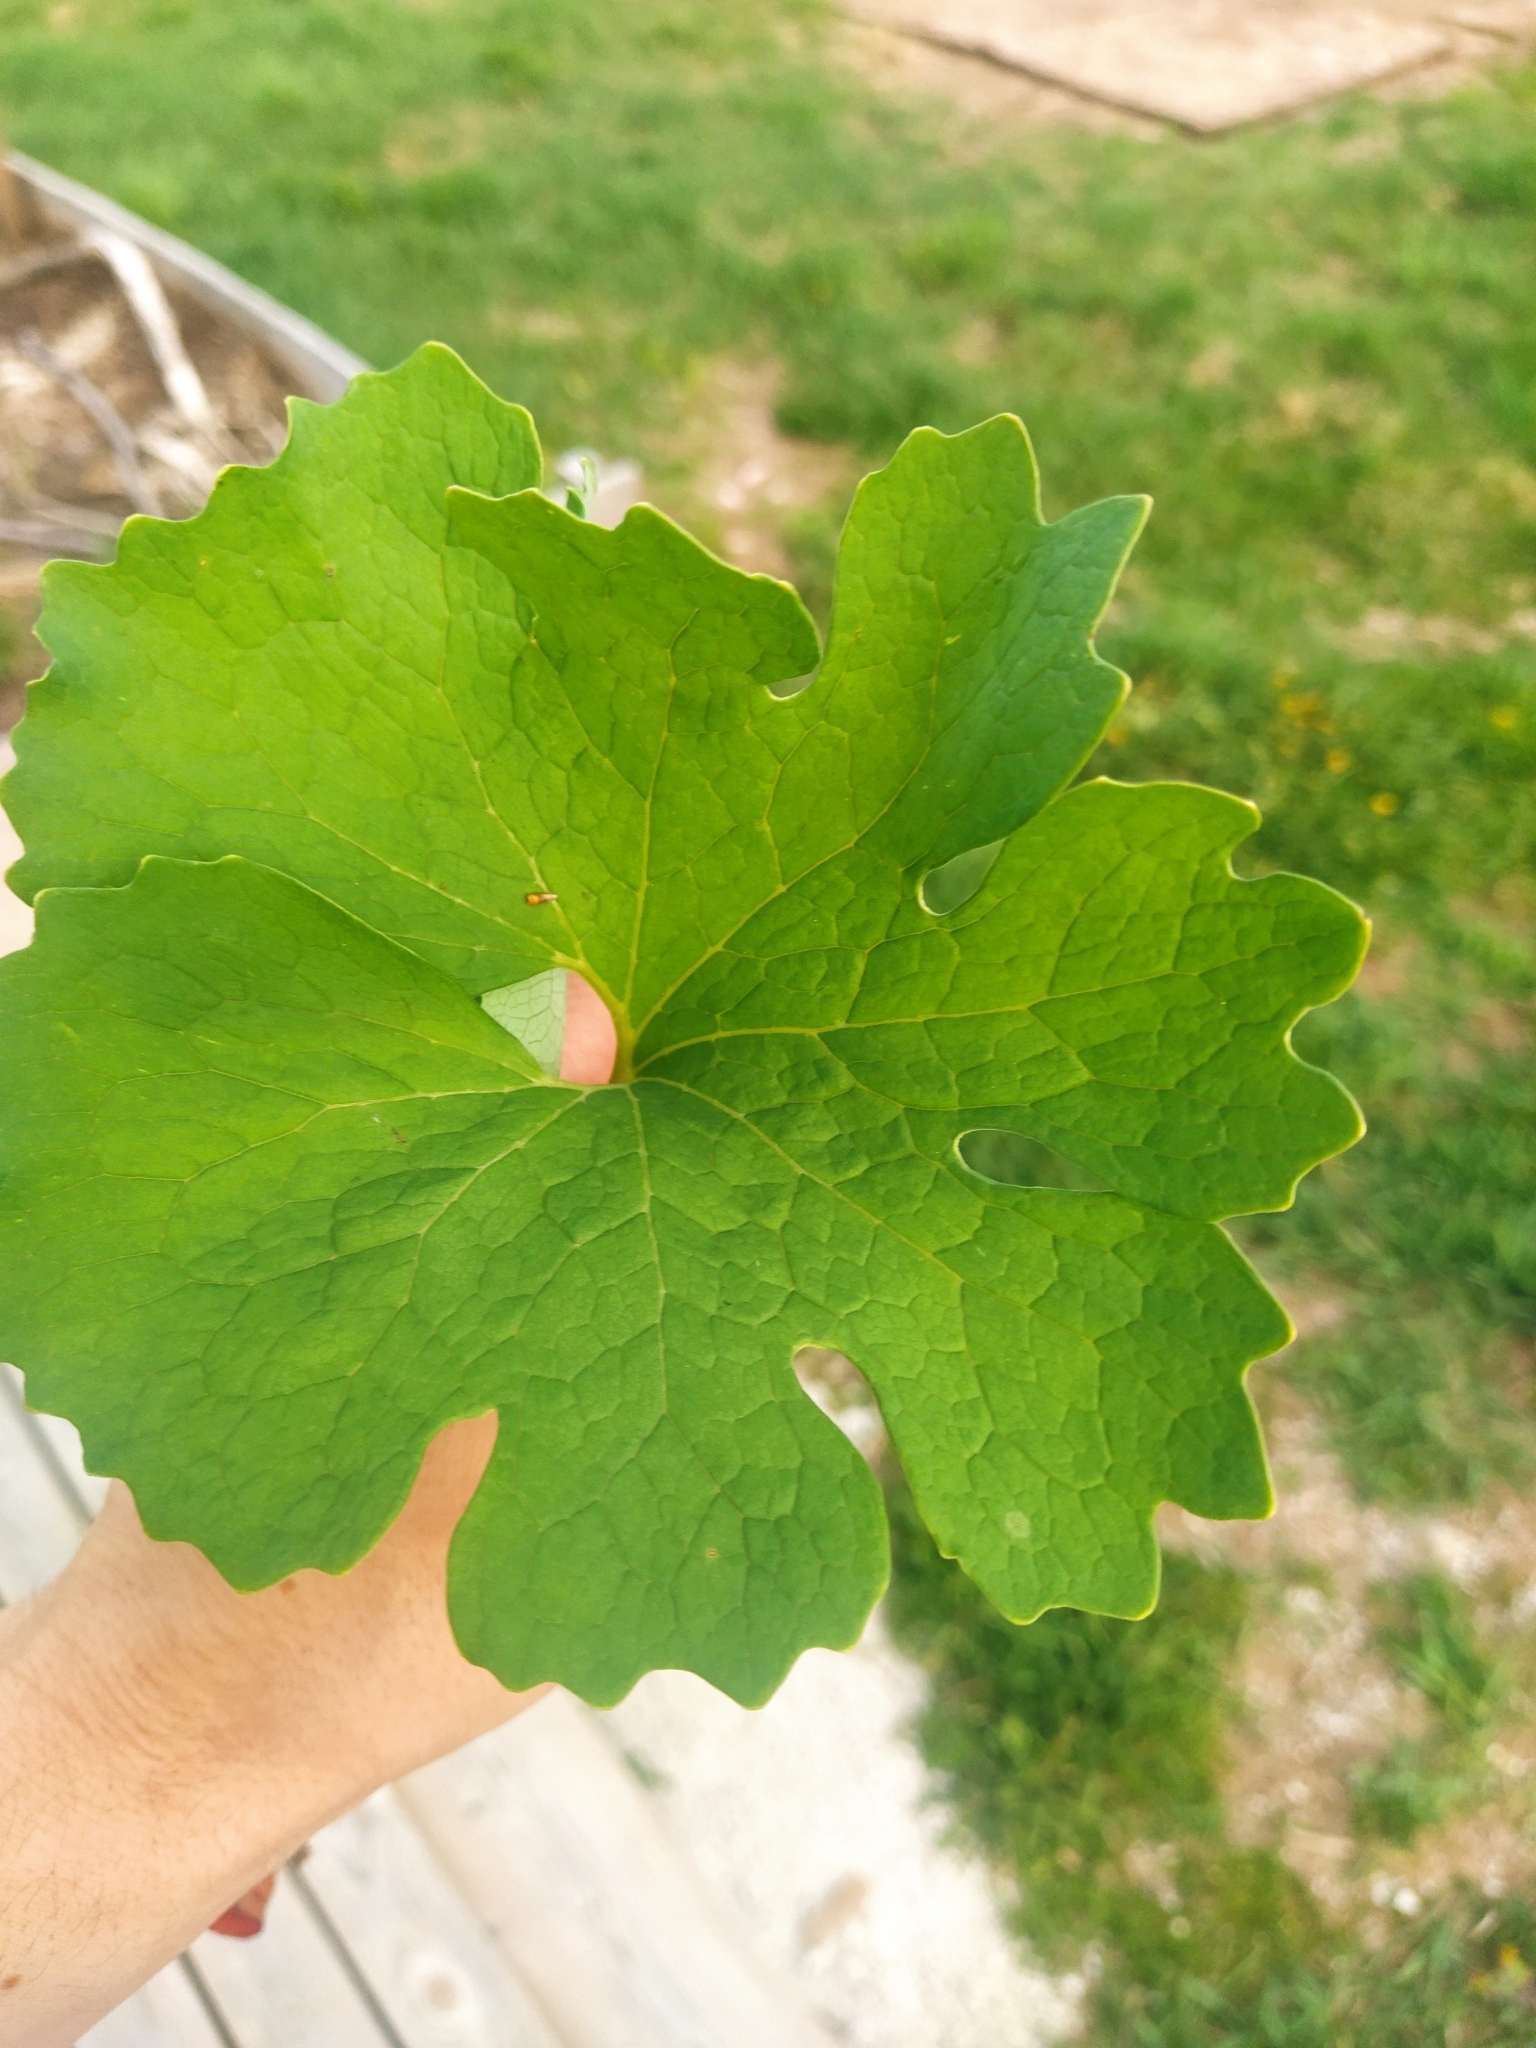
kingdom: Plantae
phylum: Tracheophyta
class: Magnoliopsida
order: Ranunculales
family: Papaveraceae
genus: Sanguinaria
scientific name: Sanguinaria canadensis
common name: Bloodroot
